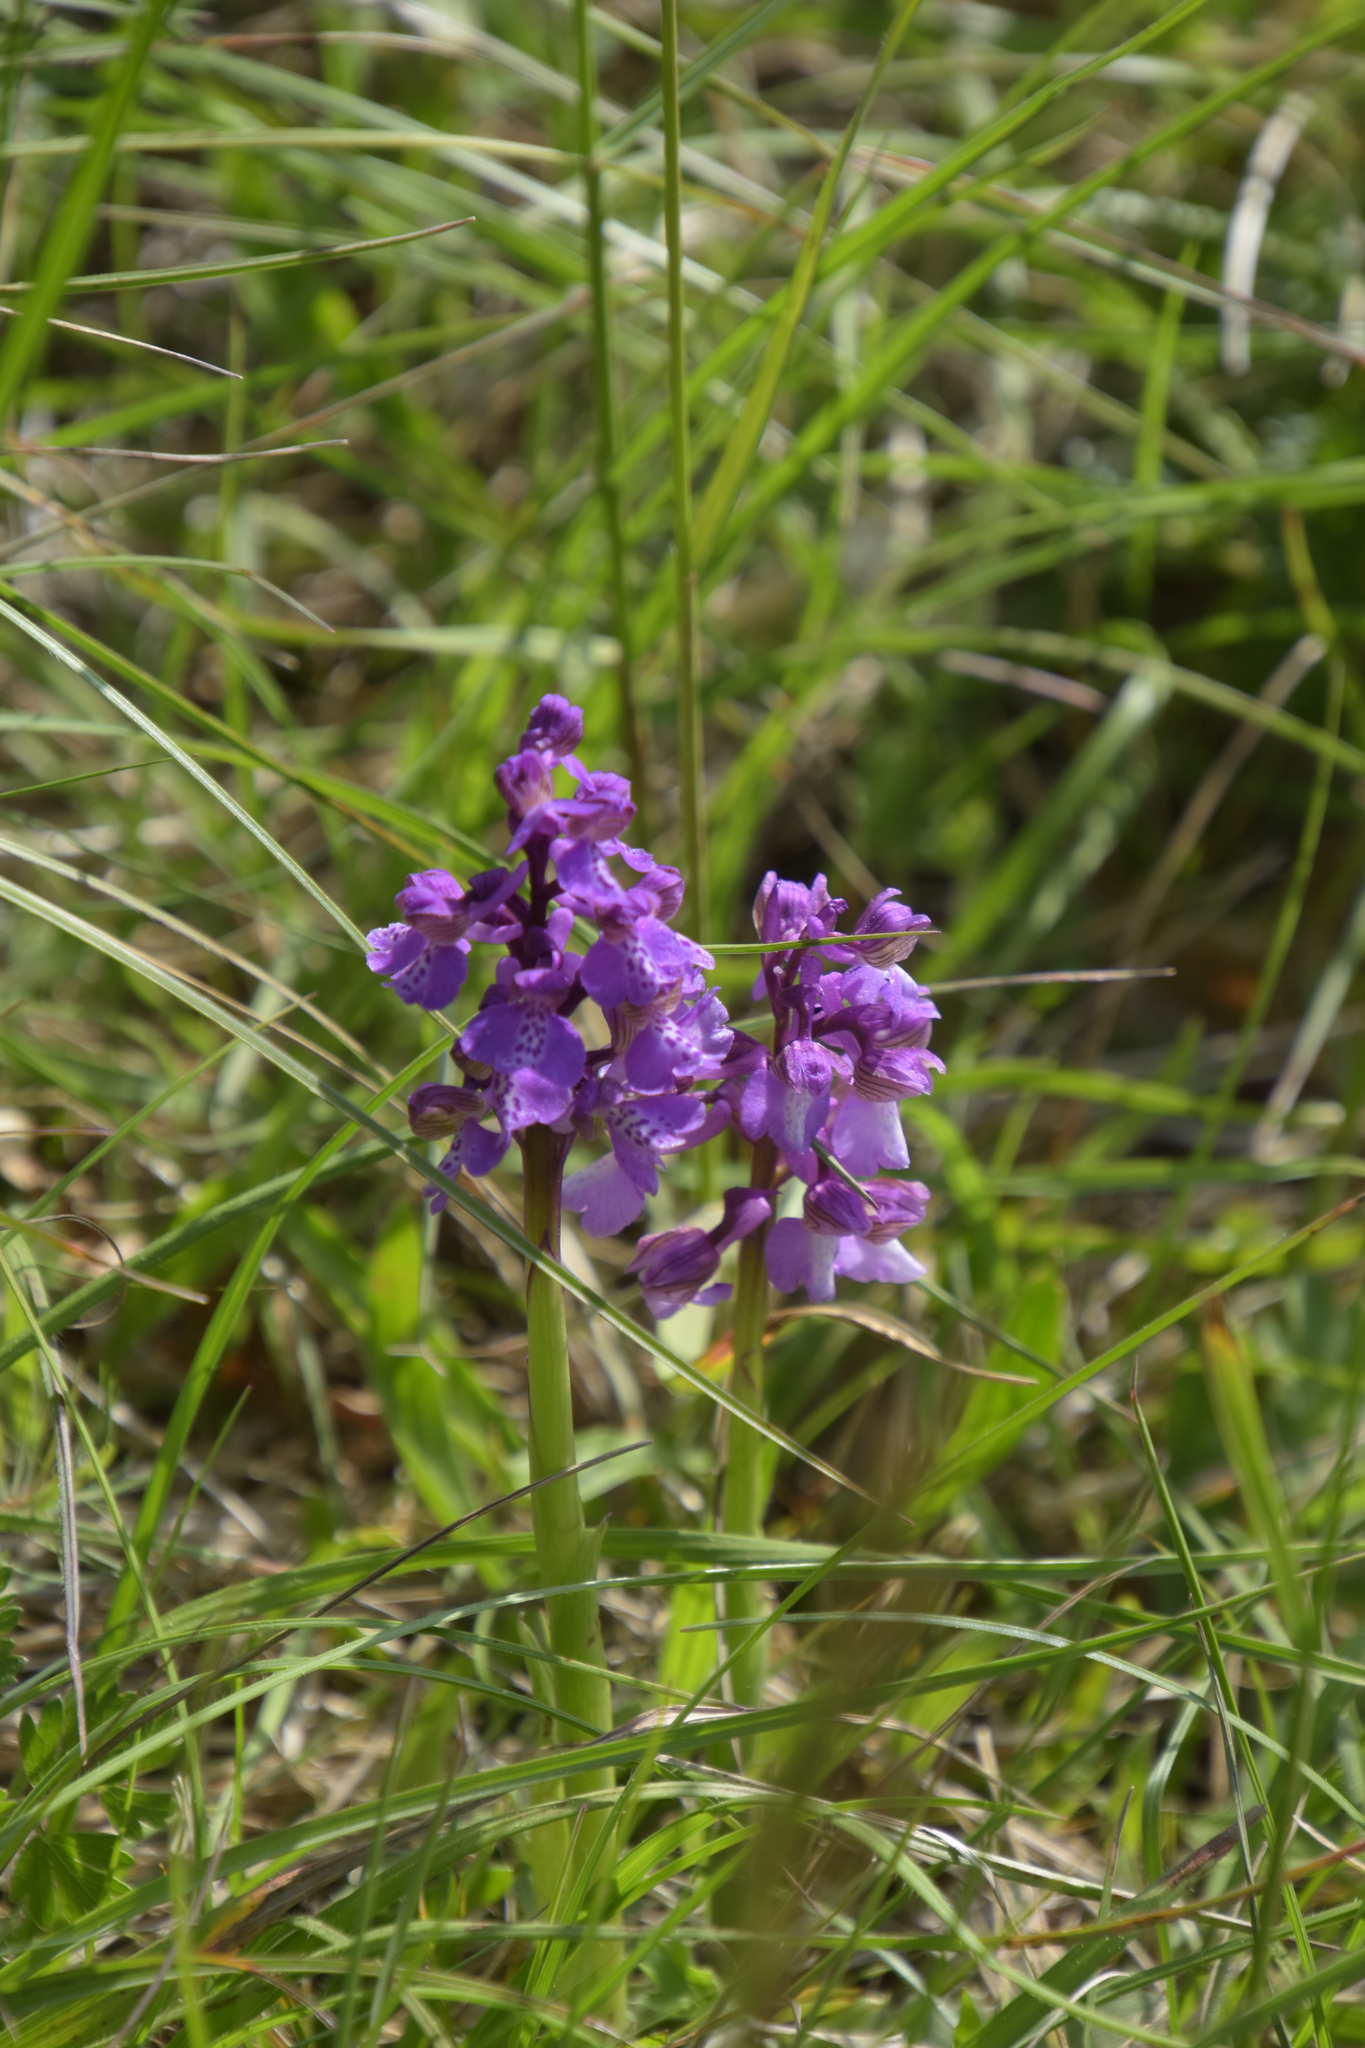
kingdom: Plantae
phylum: Tracheophyta
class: Liliopsida
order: Asparagales
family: Orchidaceae
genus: Anacamptis
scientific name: Anacamptis morio
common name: Green-winged orchid
